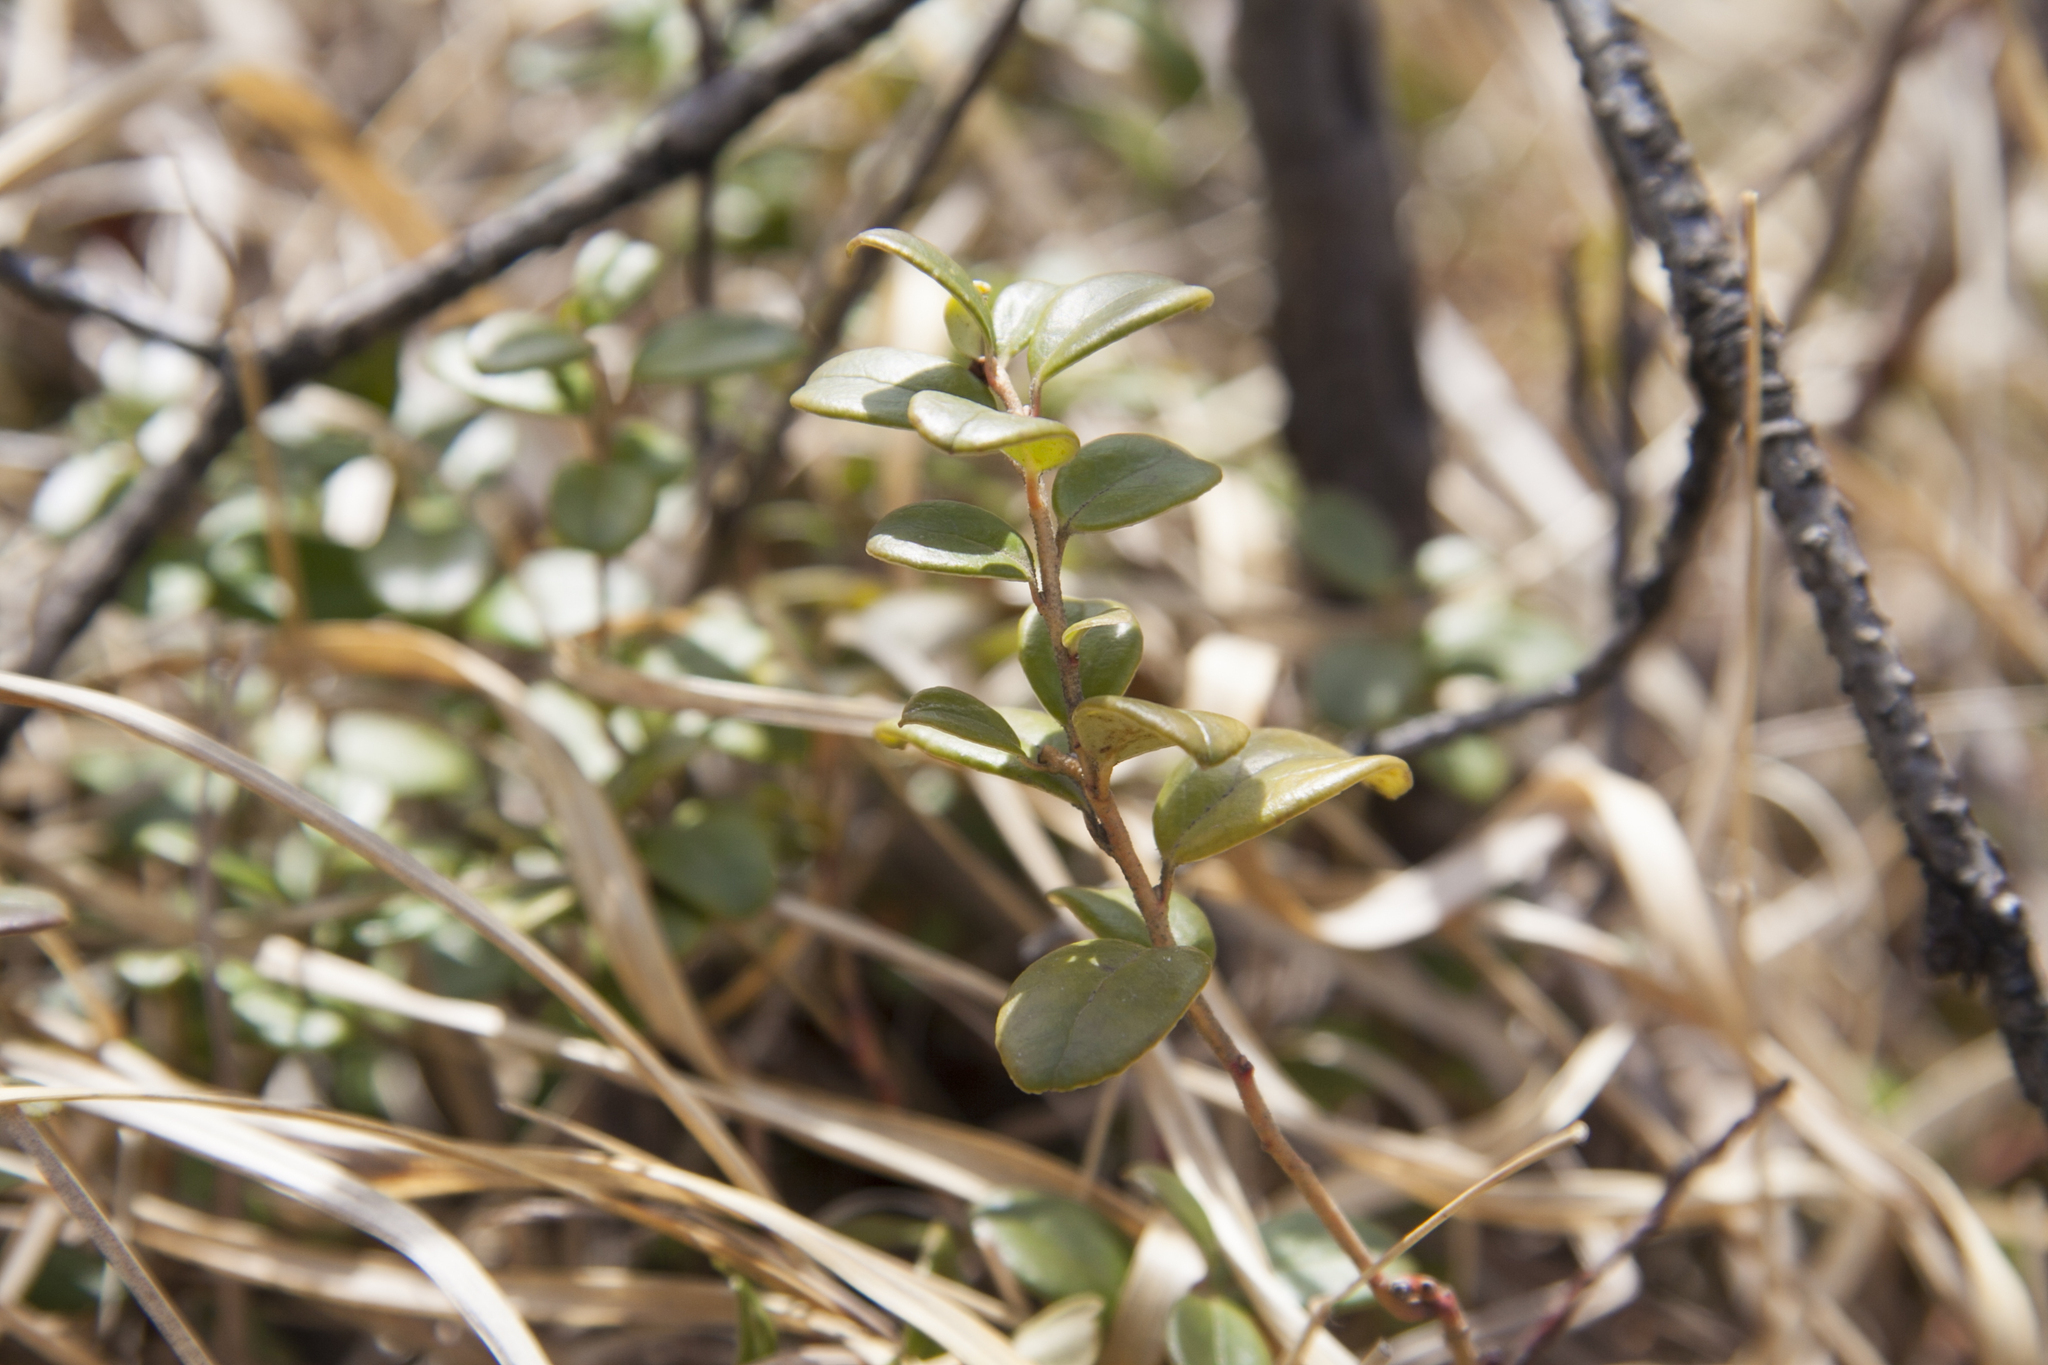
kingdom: Plantae
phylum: Tracheophyta
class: Magnoliopsida
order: Ericales
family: Ericaceae
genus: Vaccinium
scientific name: Vaccinium vitis-idaea
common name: Cowberry
